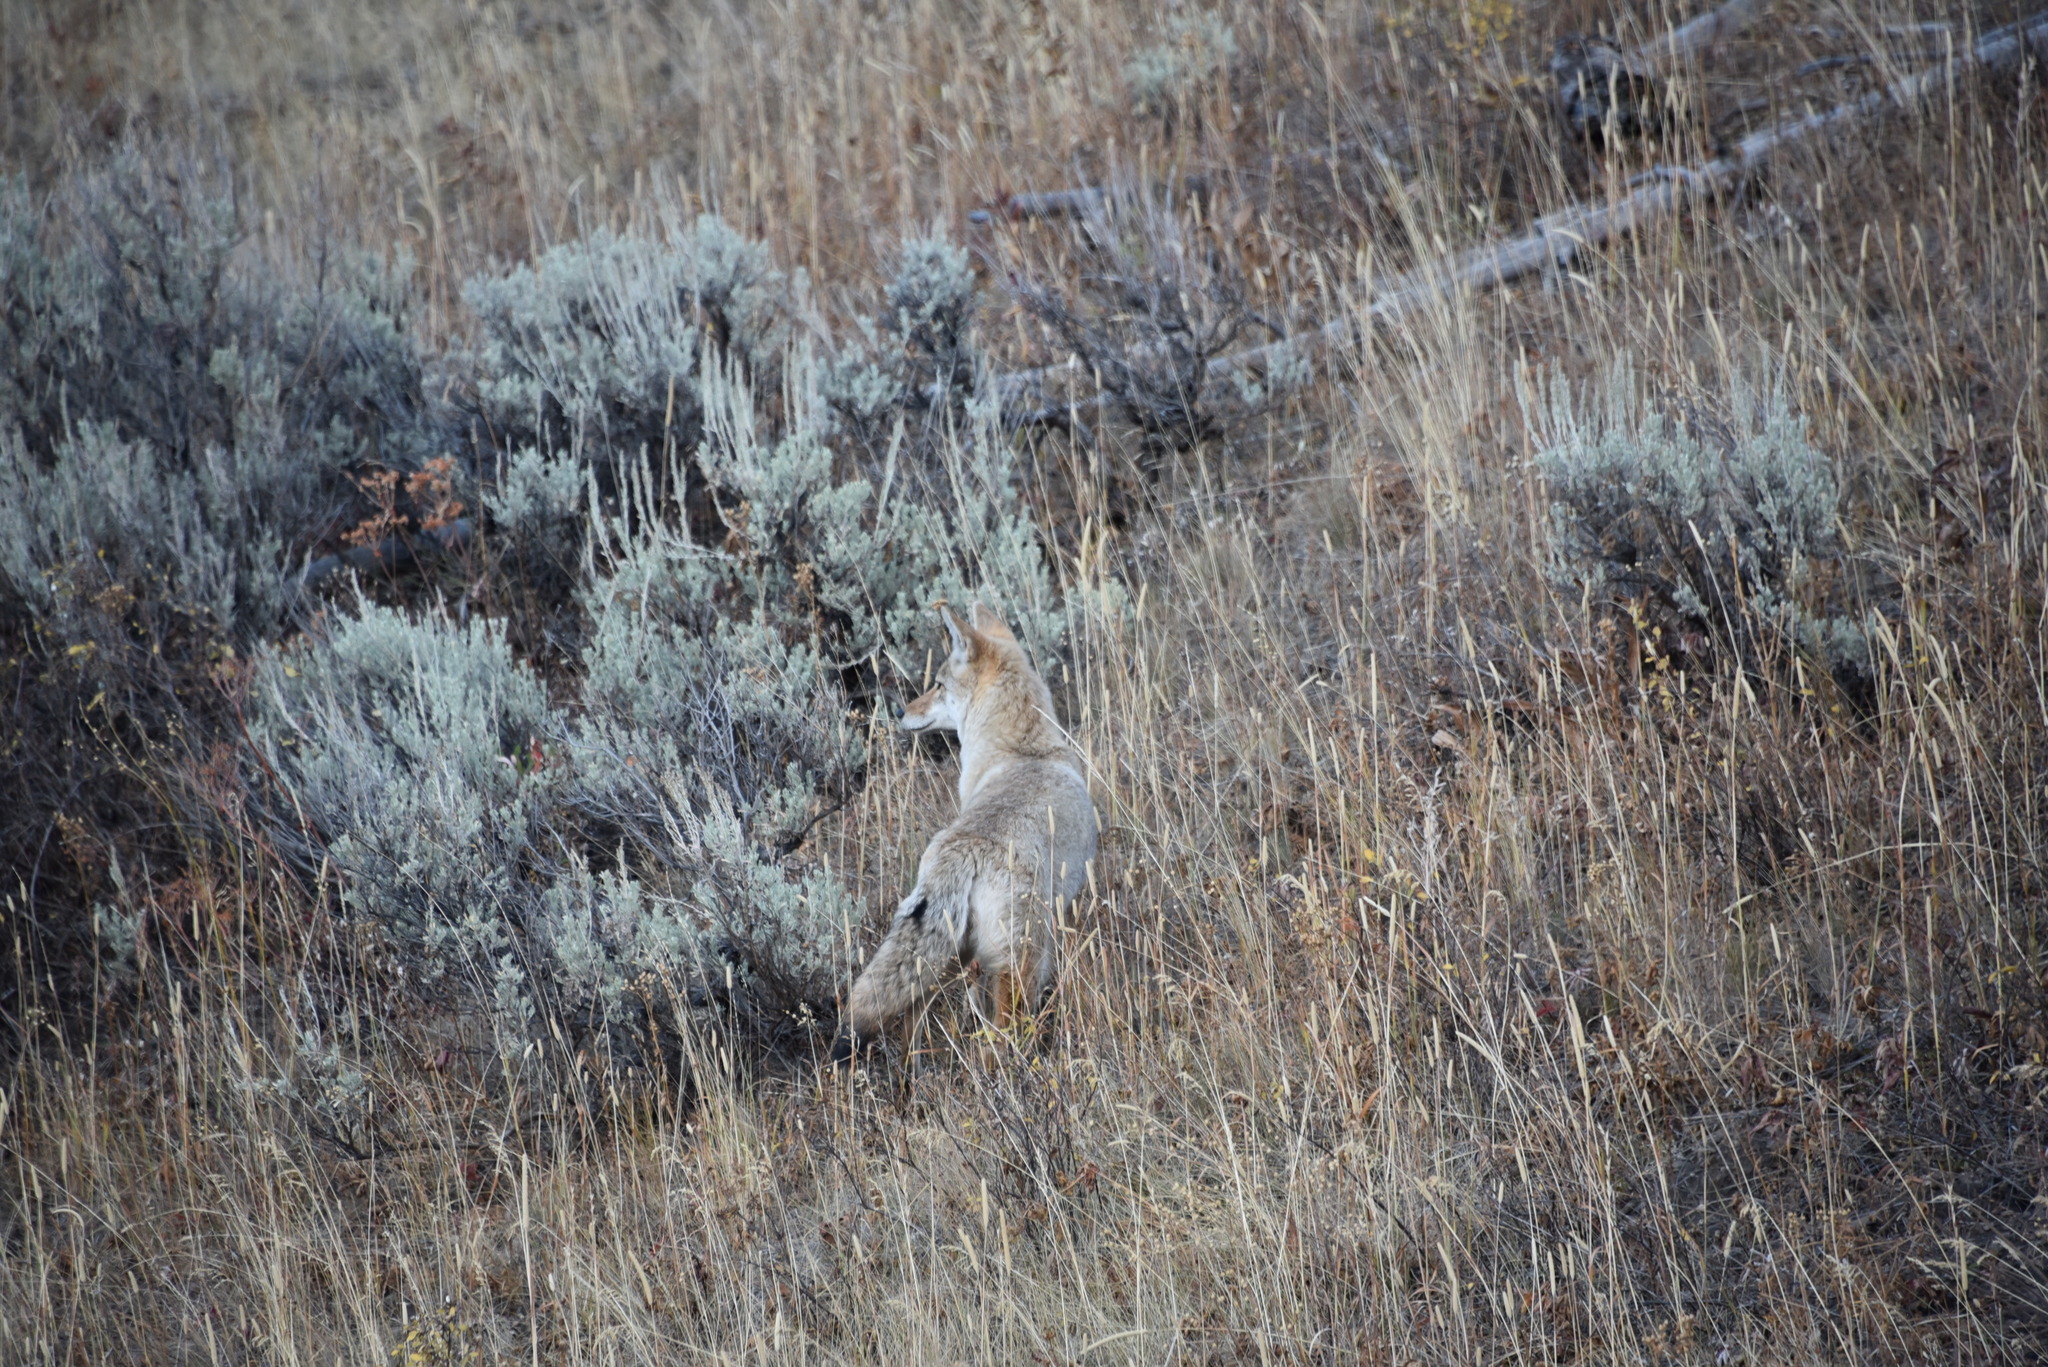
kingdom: Animalia
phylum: Chordata
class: Mammalia
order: Carnivora
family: Canidae
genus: Canis
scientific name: Canis latrans
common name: Coyote
